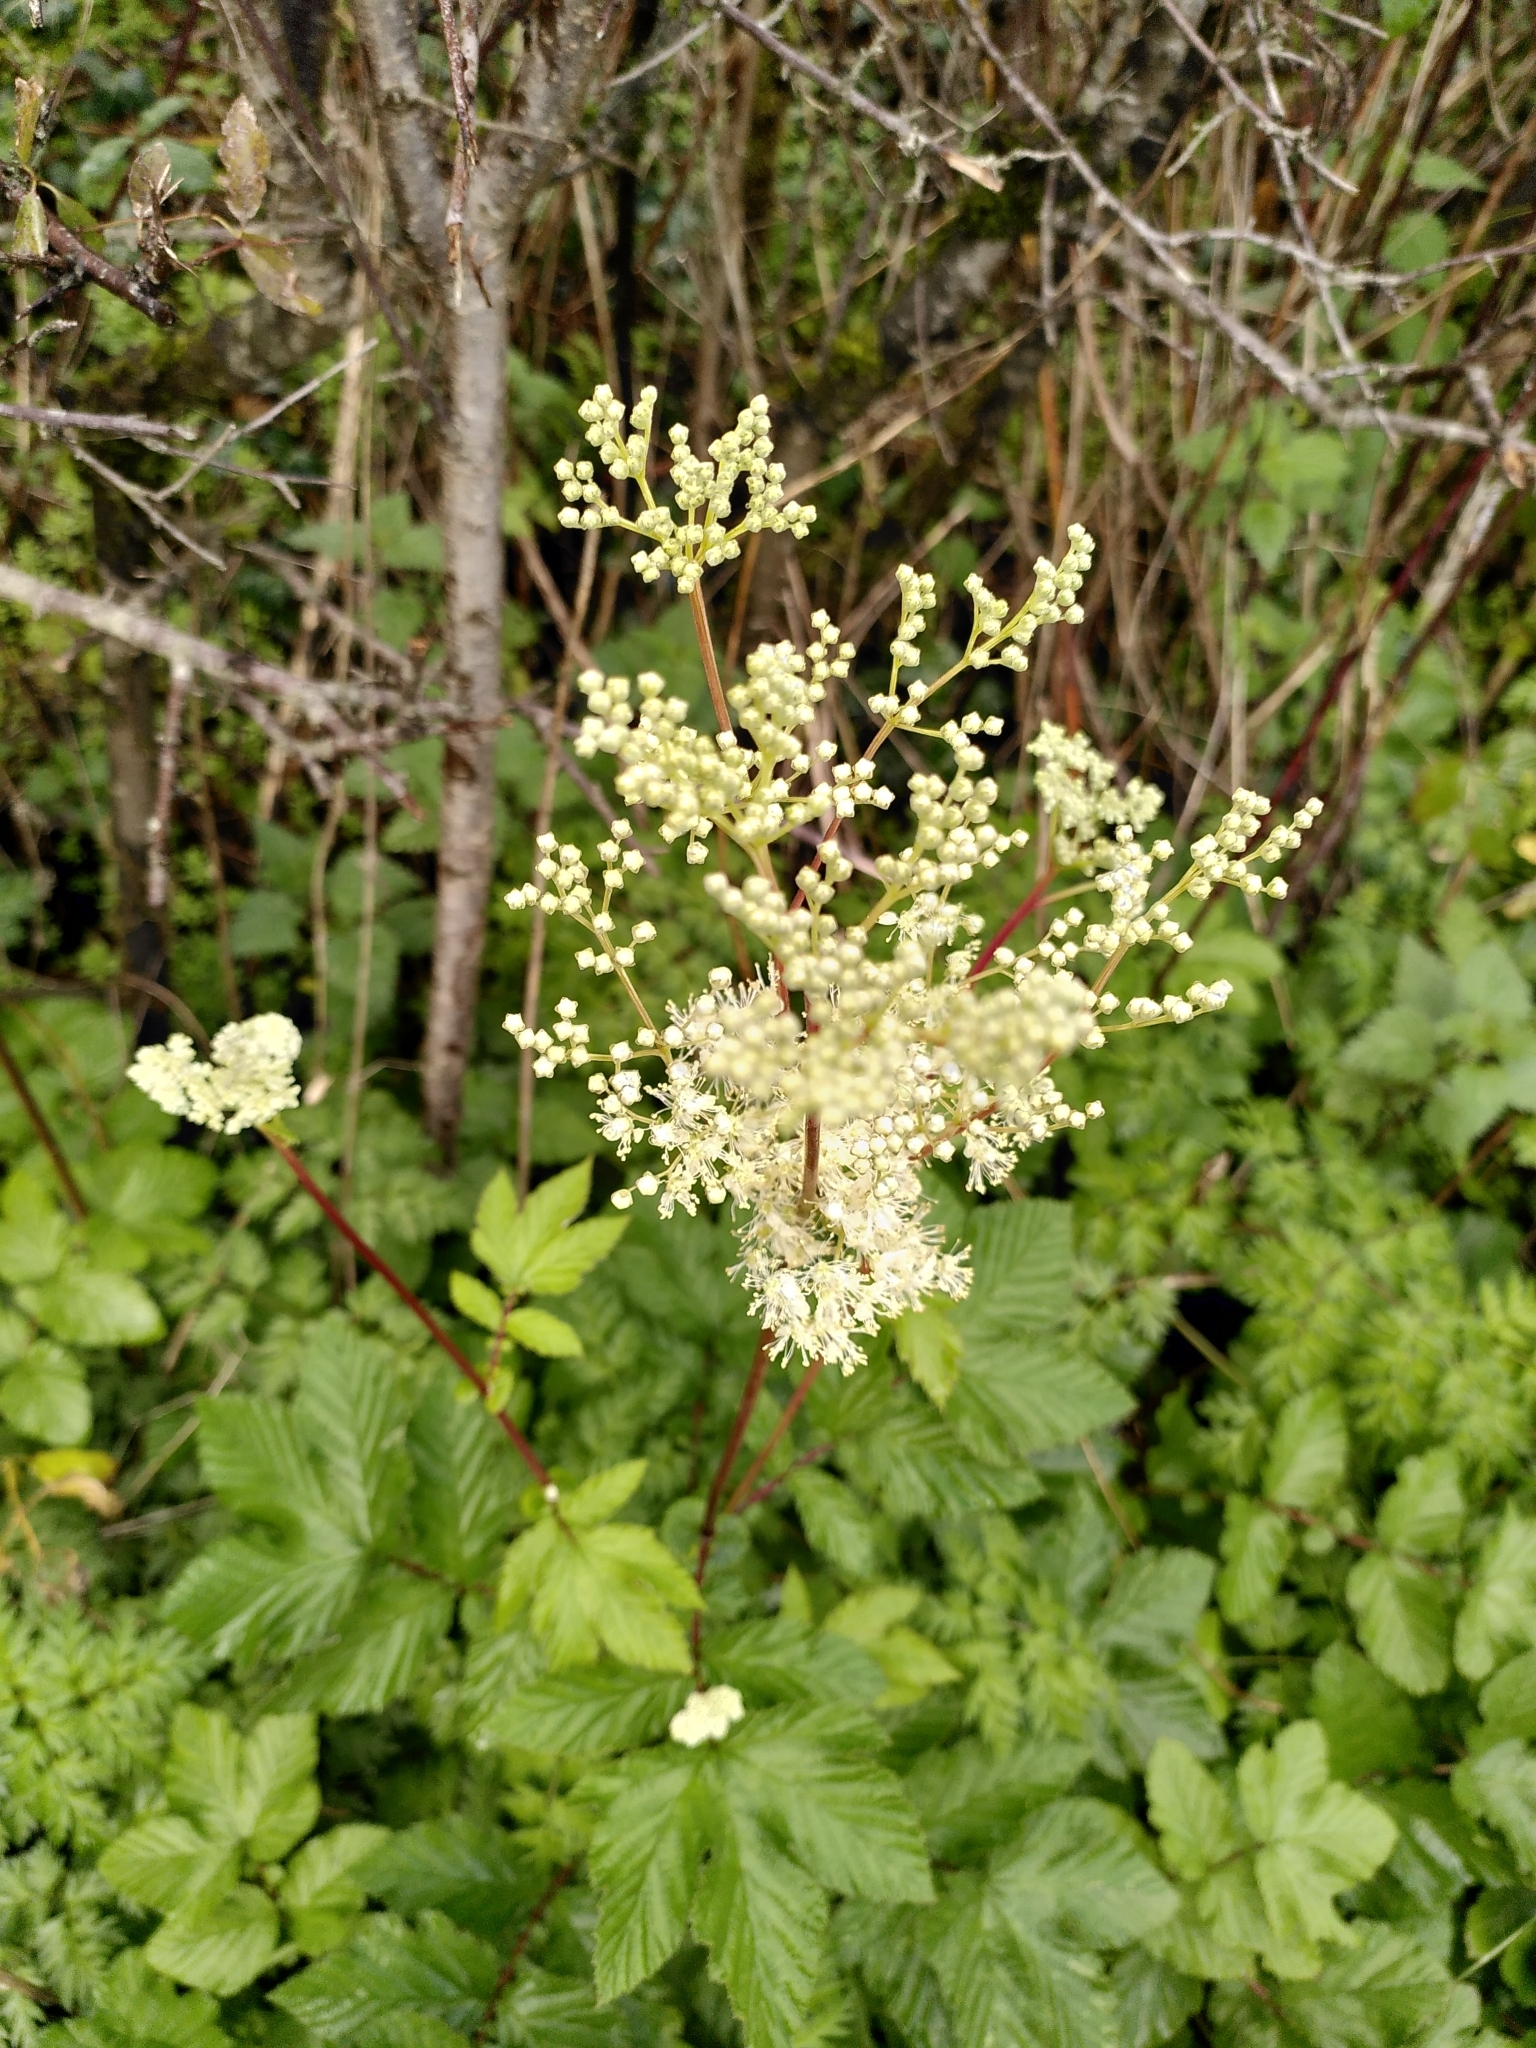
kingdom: Plantae
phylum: Tracheophyta
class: Magnoliopsida
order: Rosales
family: Rosaceae
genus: Filipendula
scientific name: Filipendula ulmaria
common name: Meadowsweet
